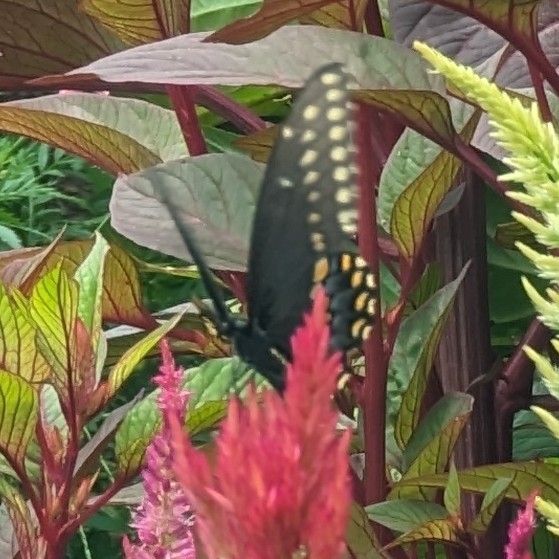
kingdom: Animalia
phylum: Arthropoda
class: Insecta
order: Lepidoptera
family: Papilionidae
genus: Papilio
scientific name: Papilio polyxenes
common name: Black swallowtail
